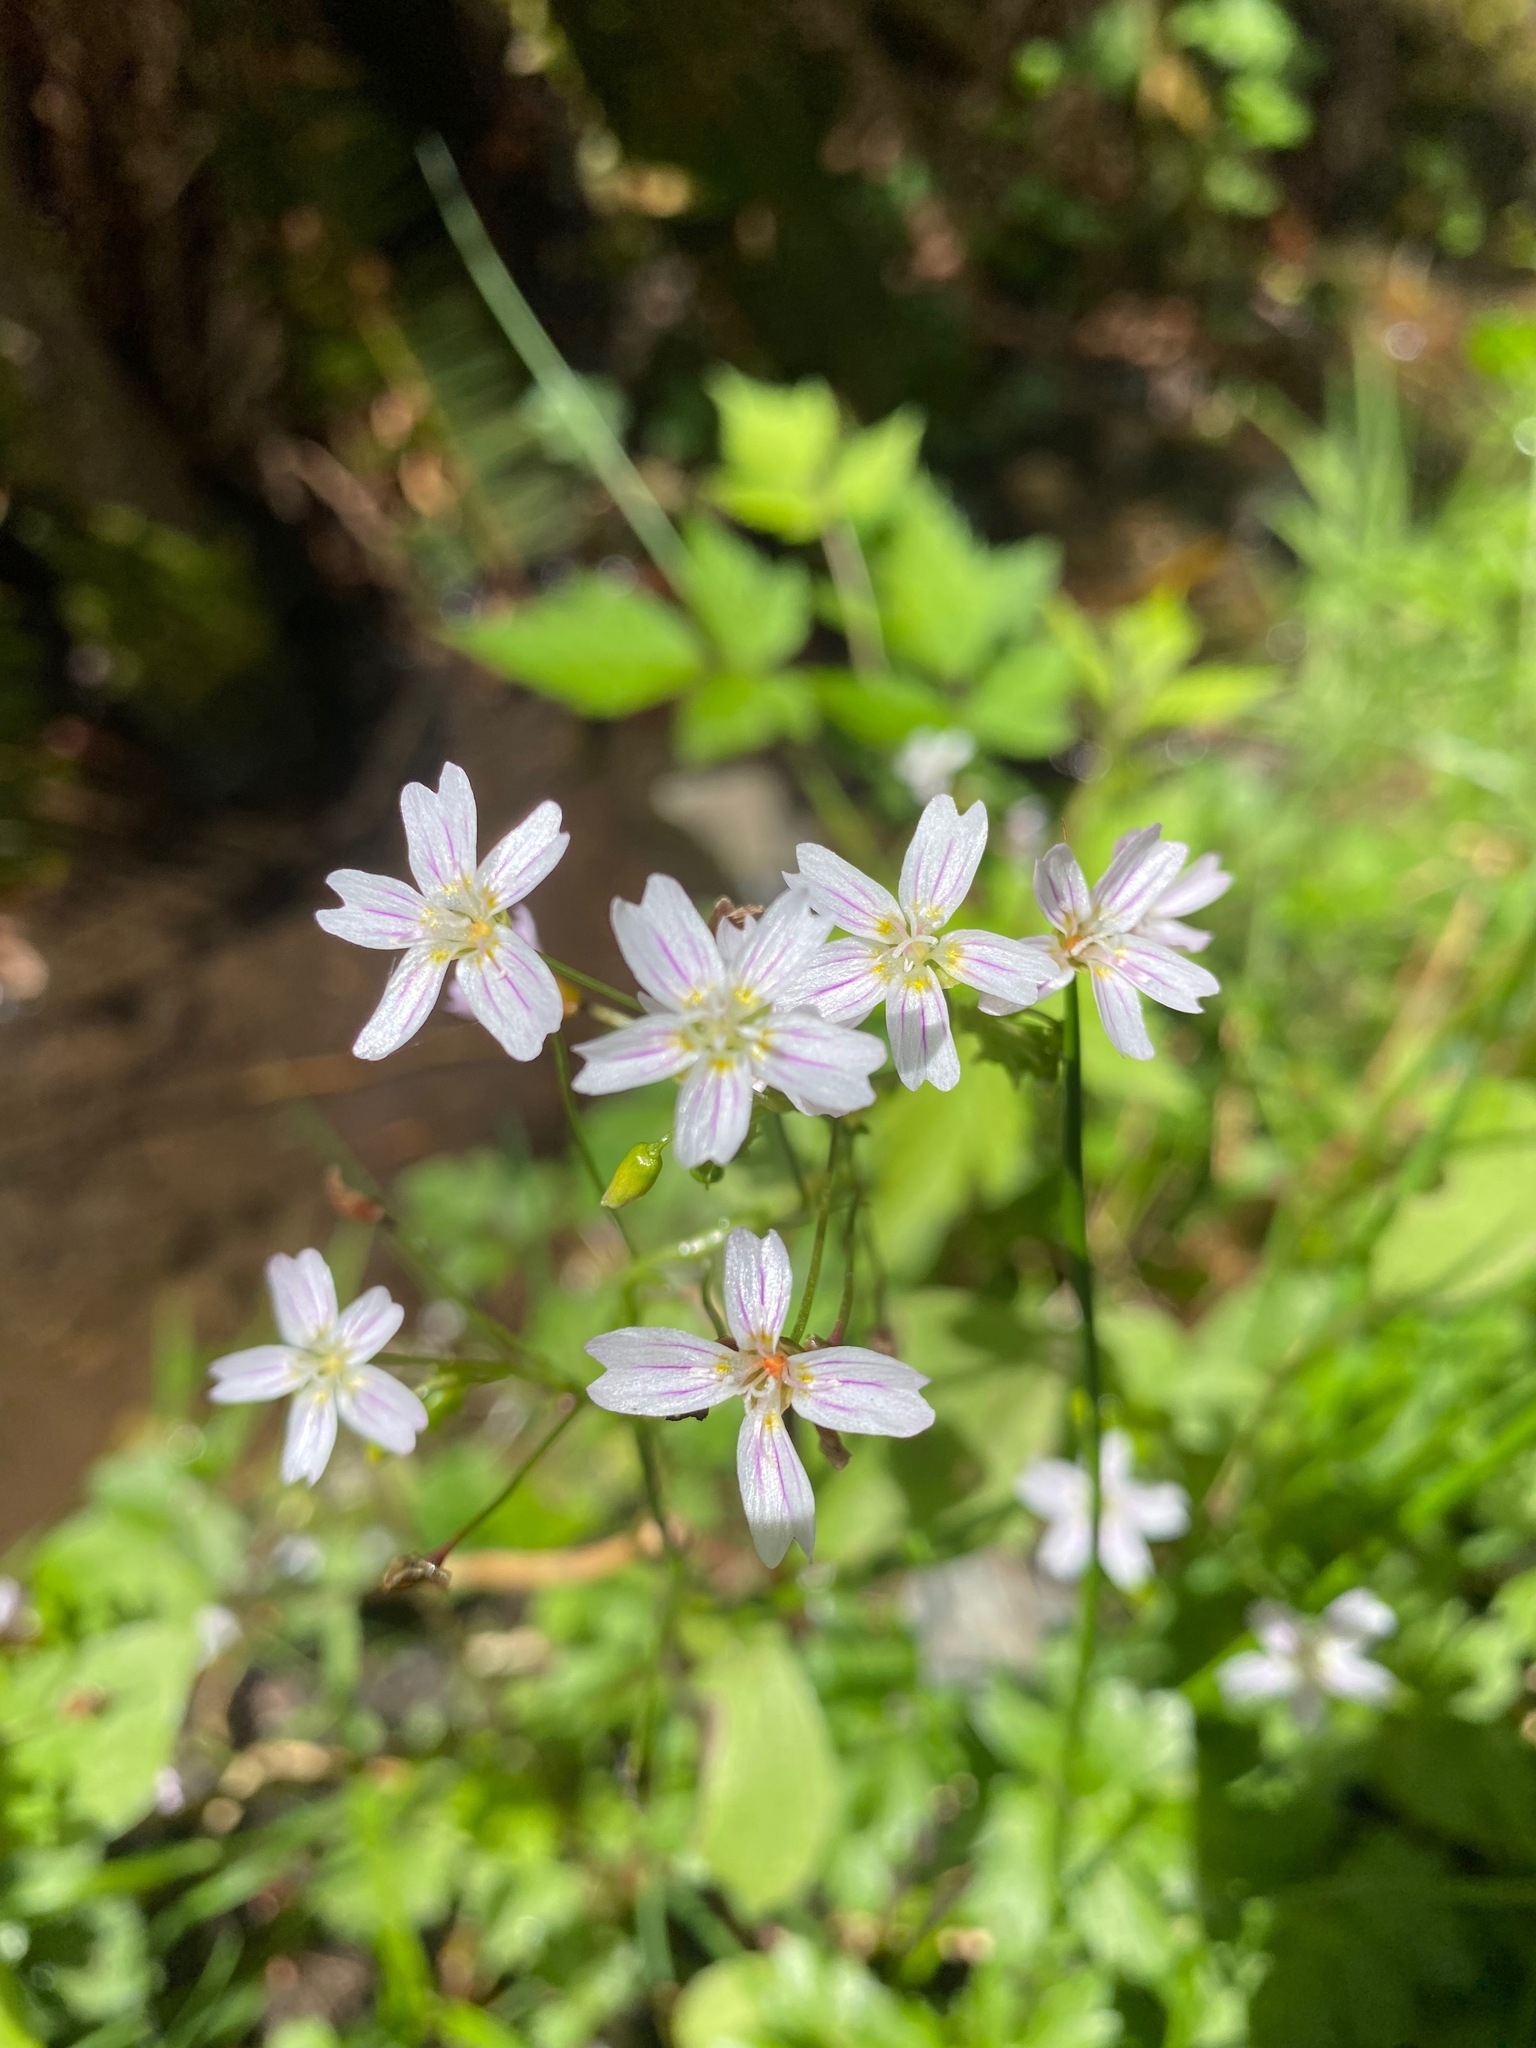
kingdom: Plantae
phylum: Tracheophyta
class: Magnoliopsida
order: Caryophyllales
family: Montiaceae
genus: Claytonia
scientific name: Claytonia sibirica
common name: Pink purslane
